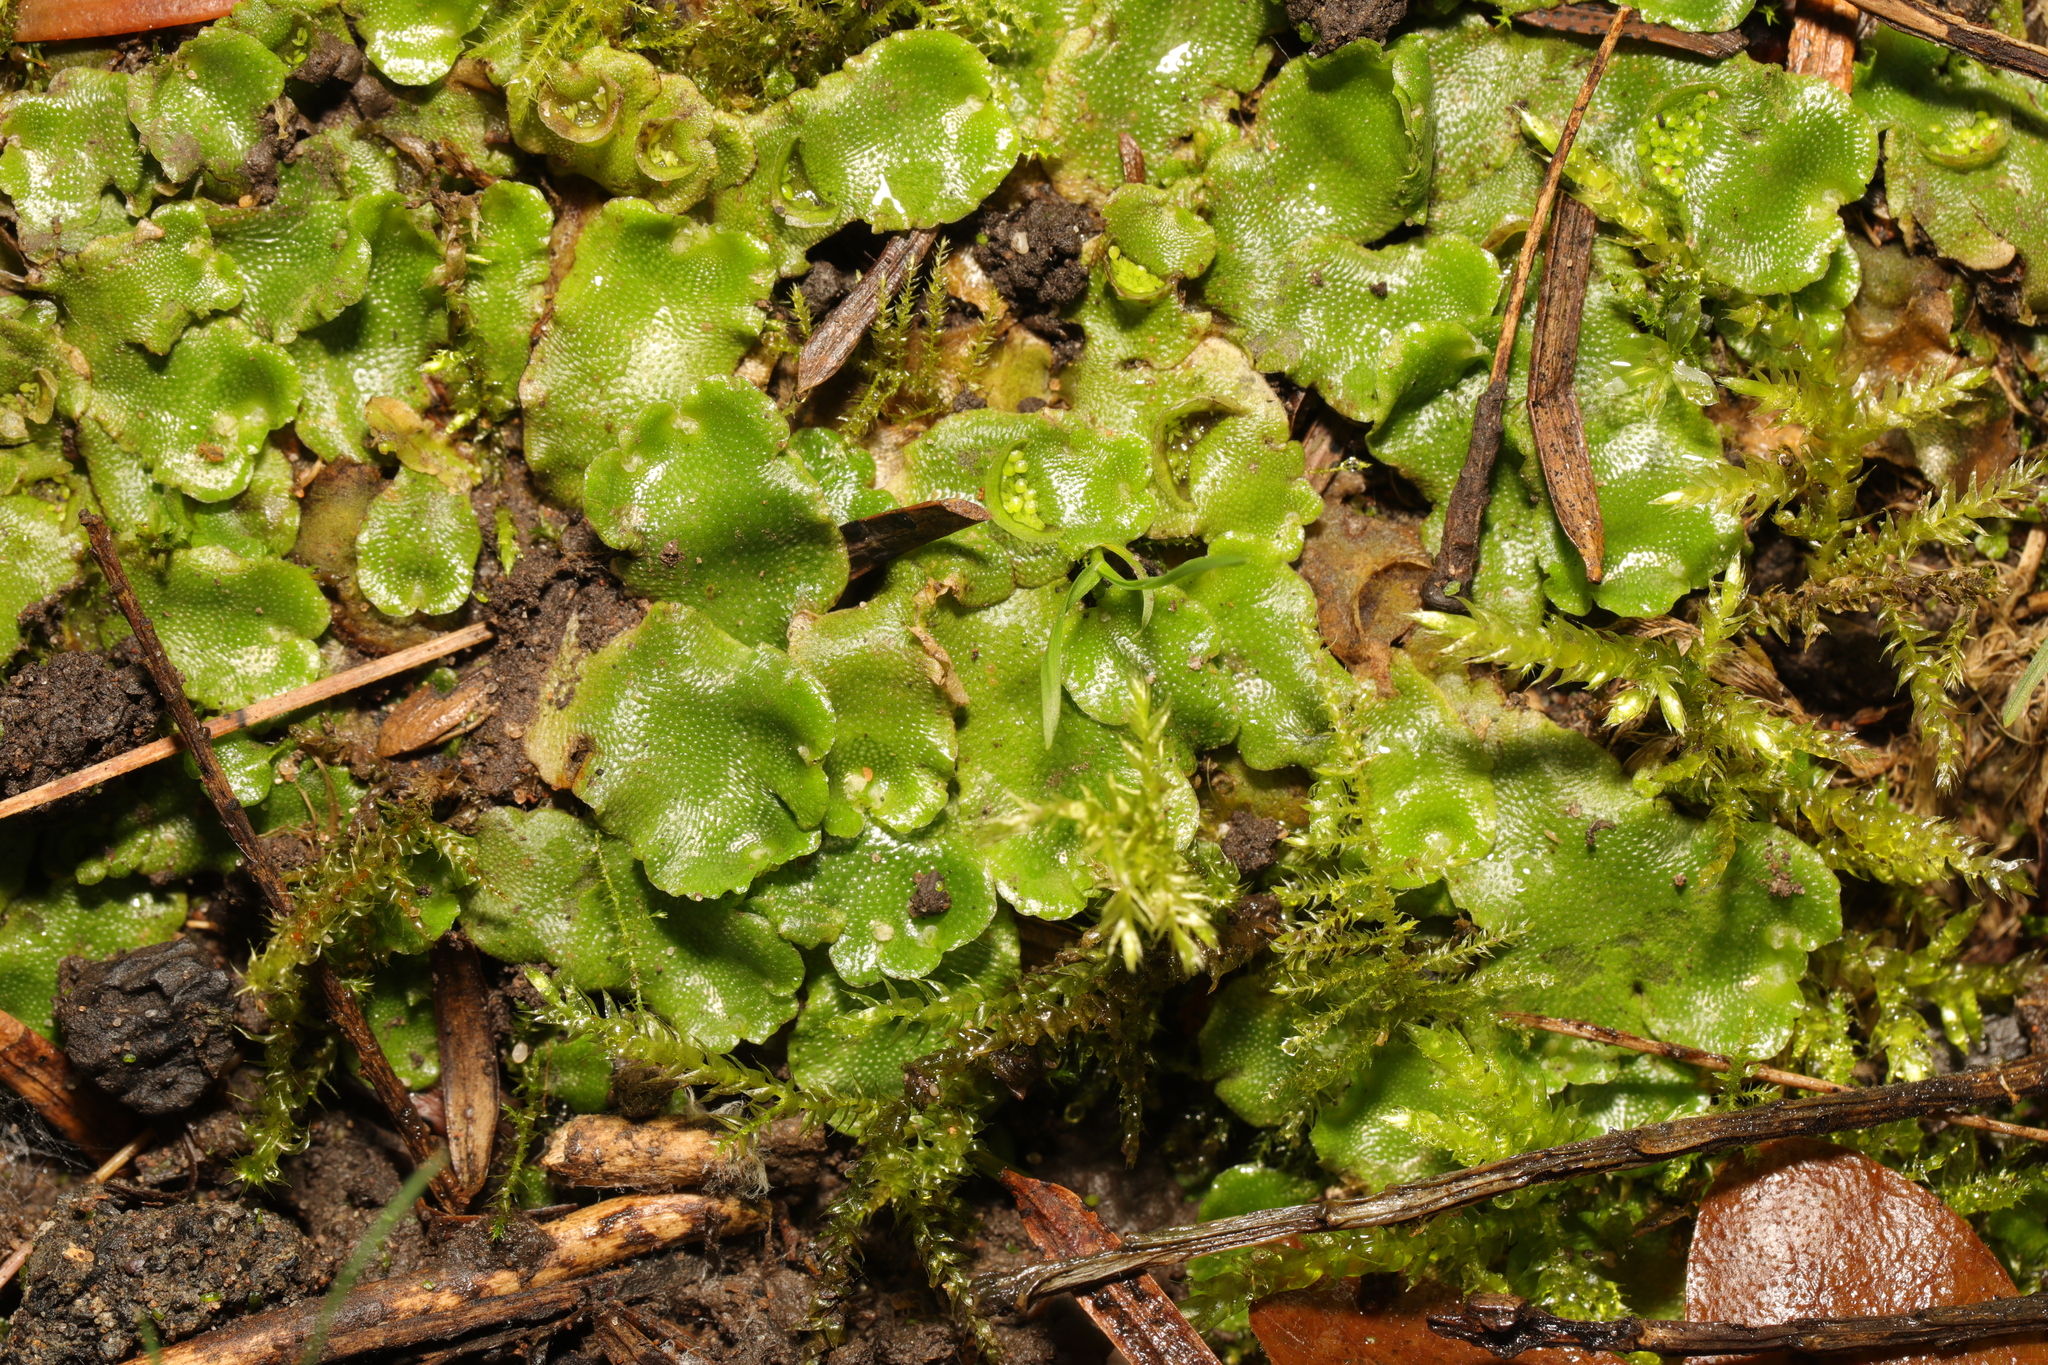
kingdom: Plantae
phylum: Marchantiophyta
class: Marchantiopsida
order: Lunulariales
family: Lunulariaceae
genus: Lunularia
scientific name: Lunularia cruciata
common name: Crescent-cup liverwort
